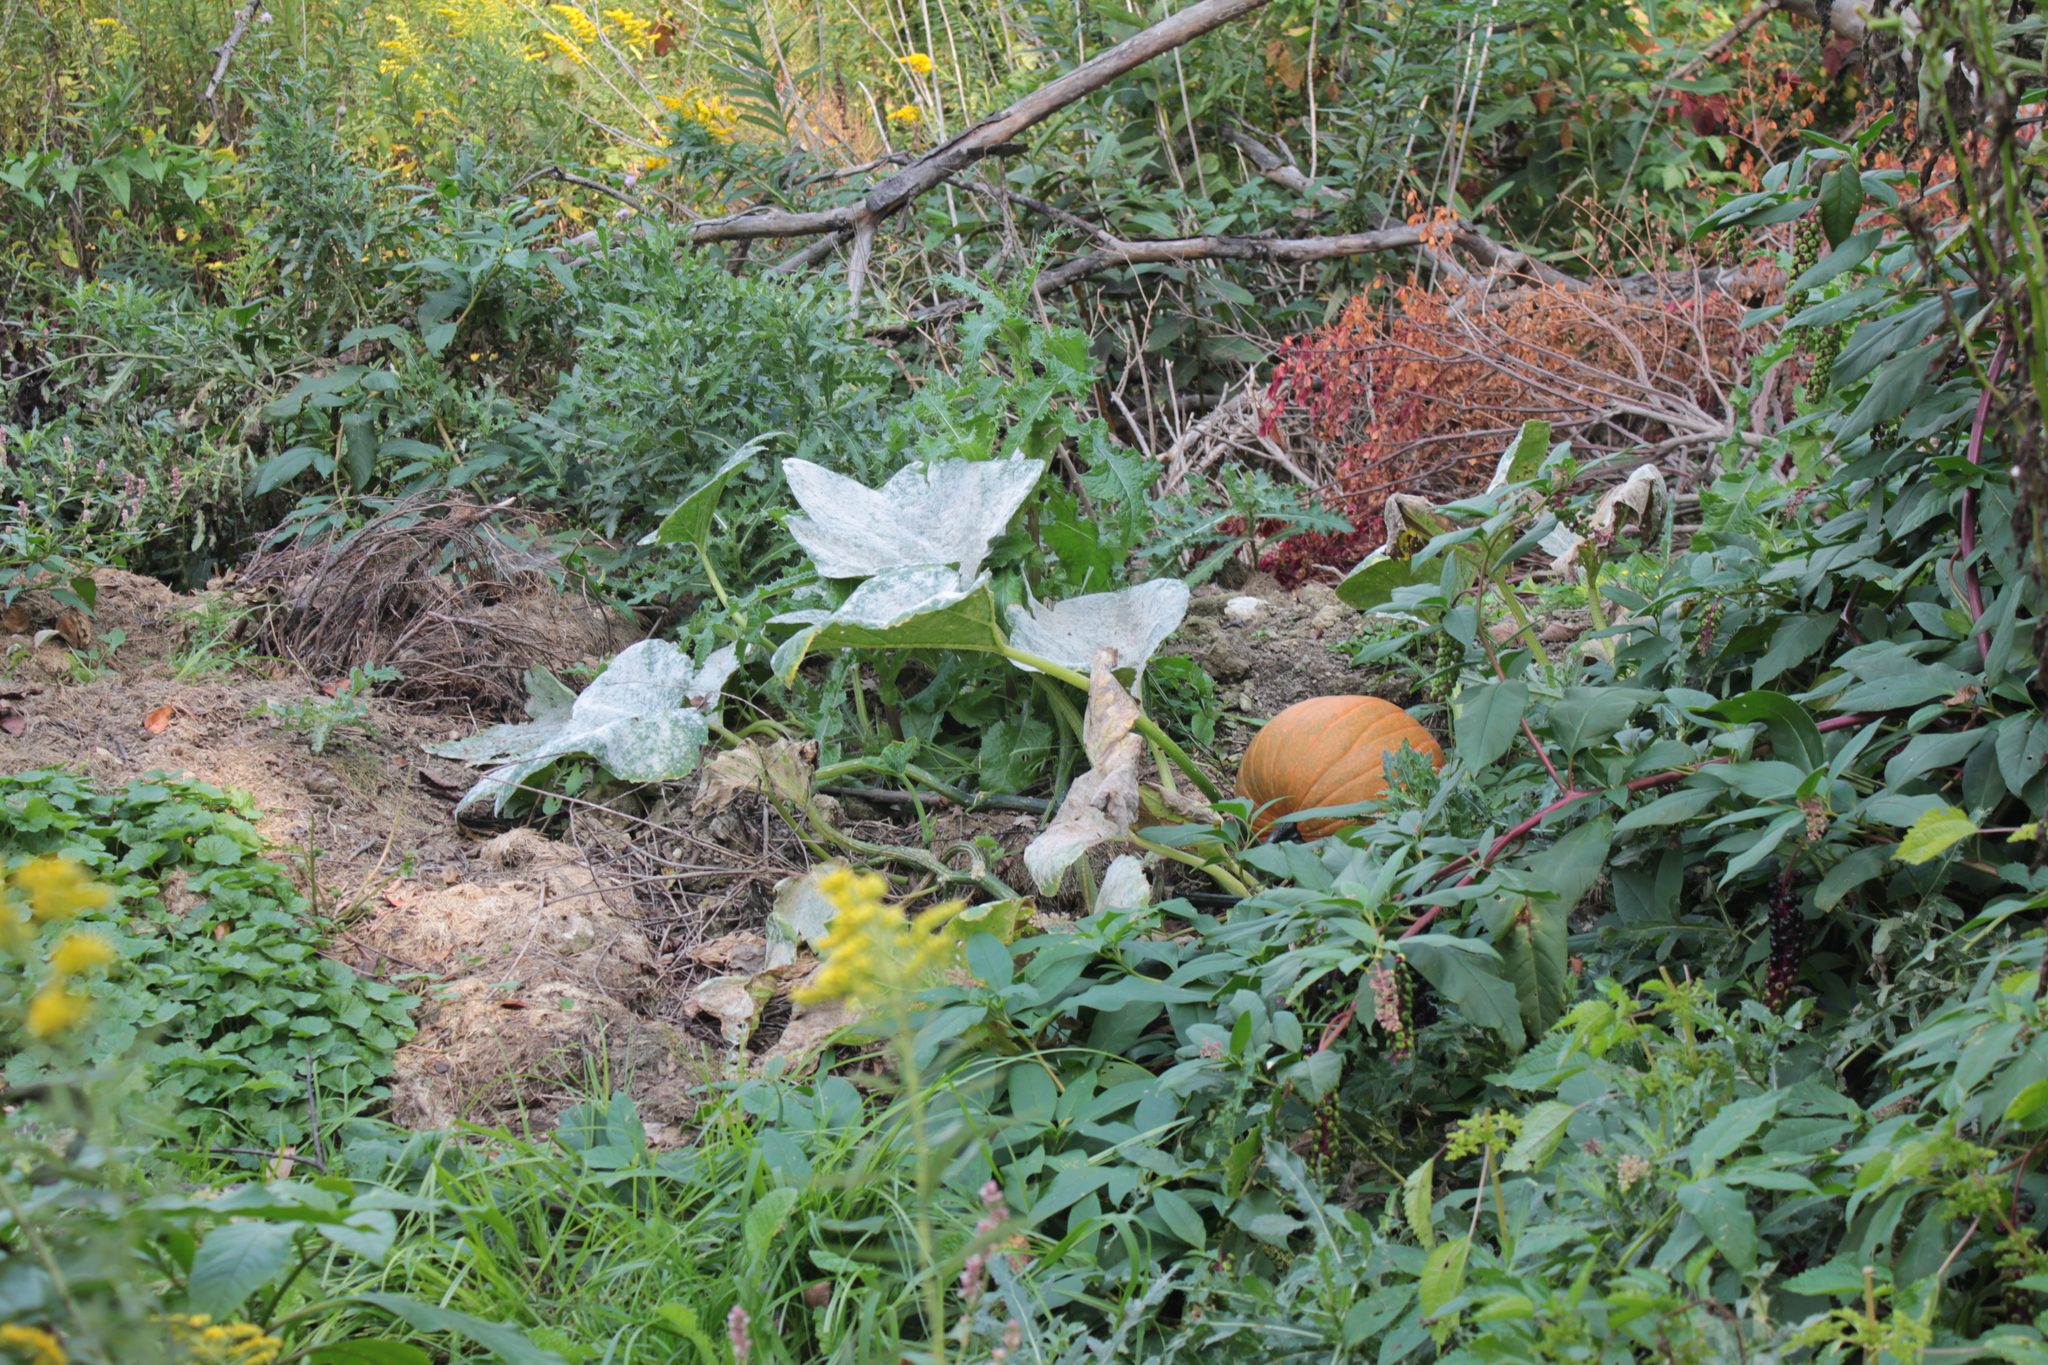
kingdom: Plantae
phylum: Tracheophyta
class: Magnoliopsida
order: Cucurbitales
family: Cucurbitaceae
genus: Cucurbita
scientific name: Cucurbita pepo
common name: Marrow
